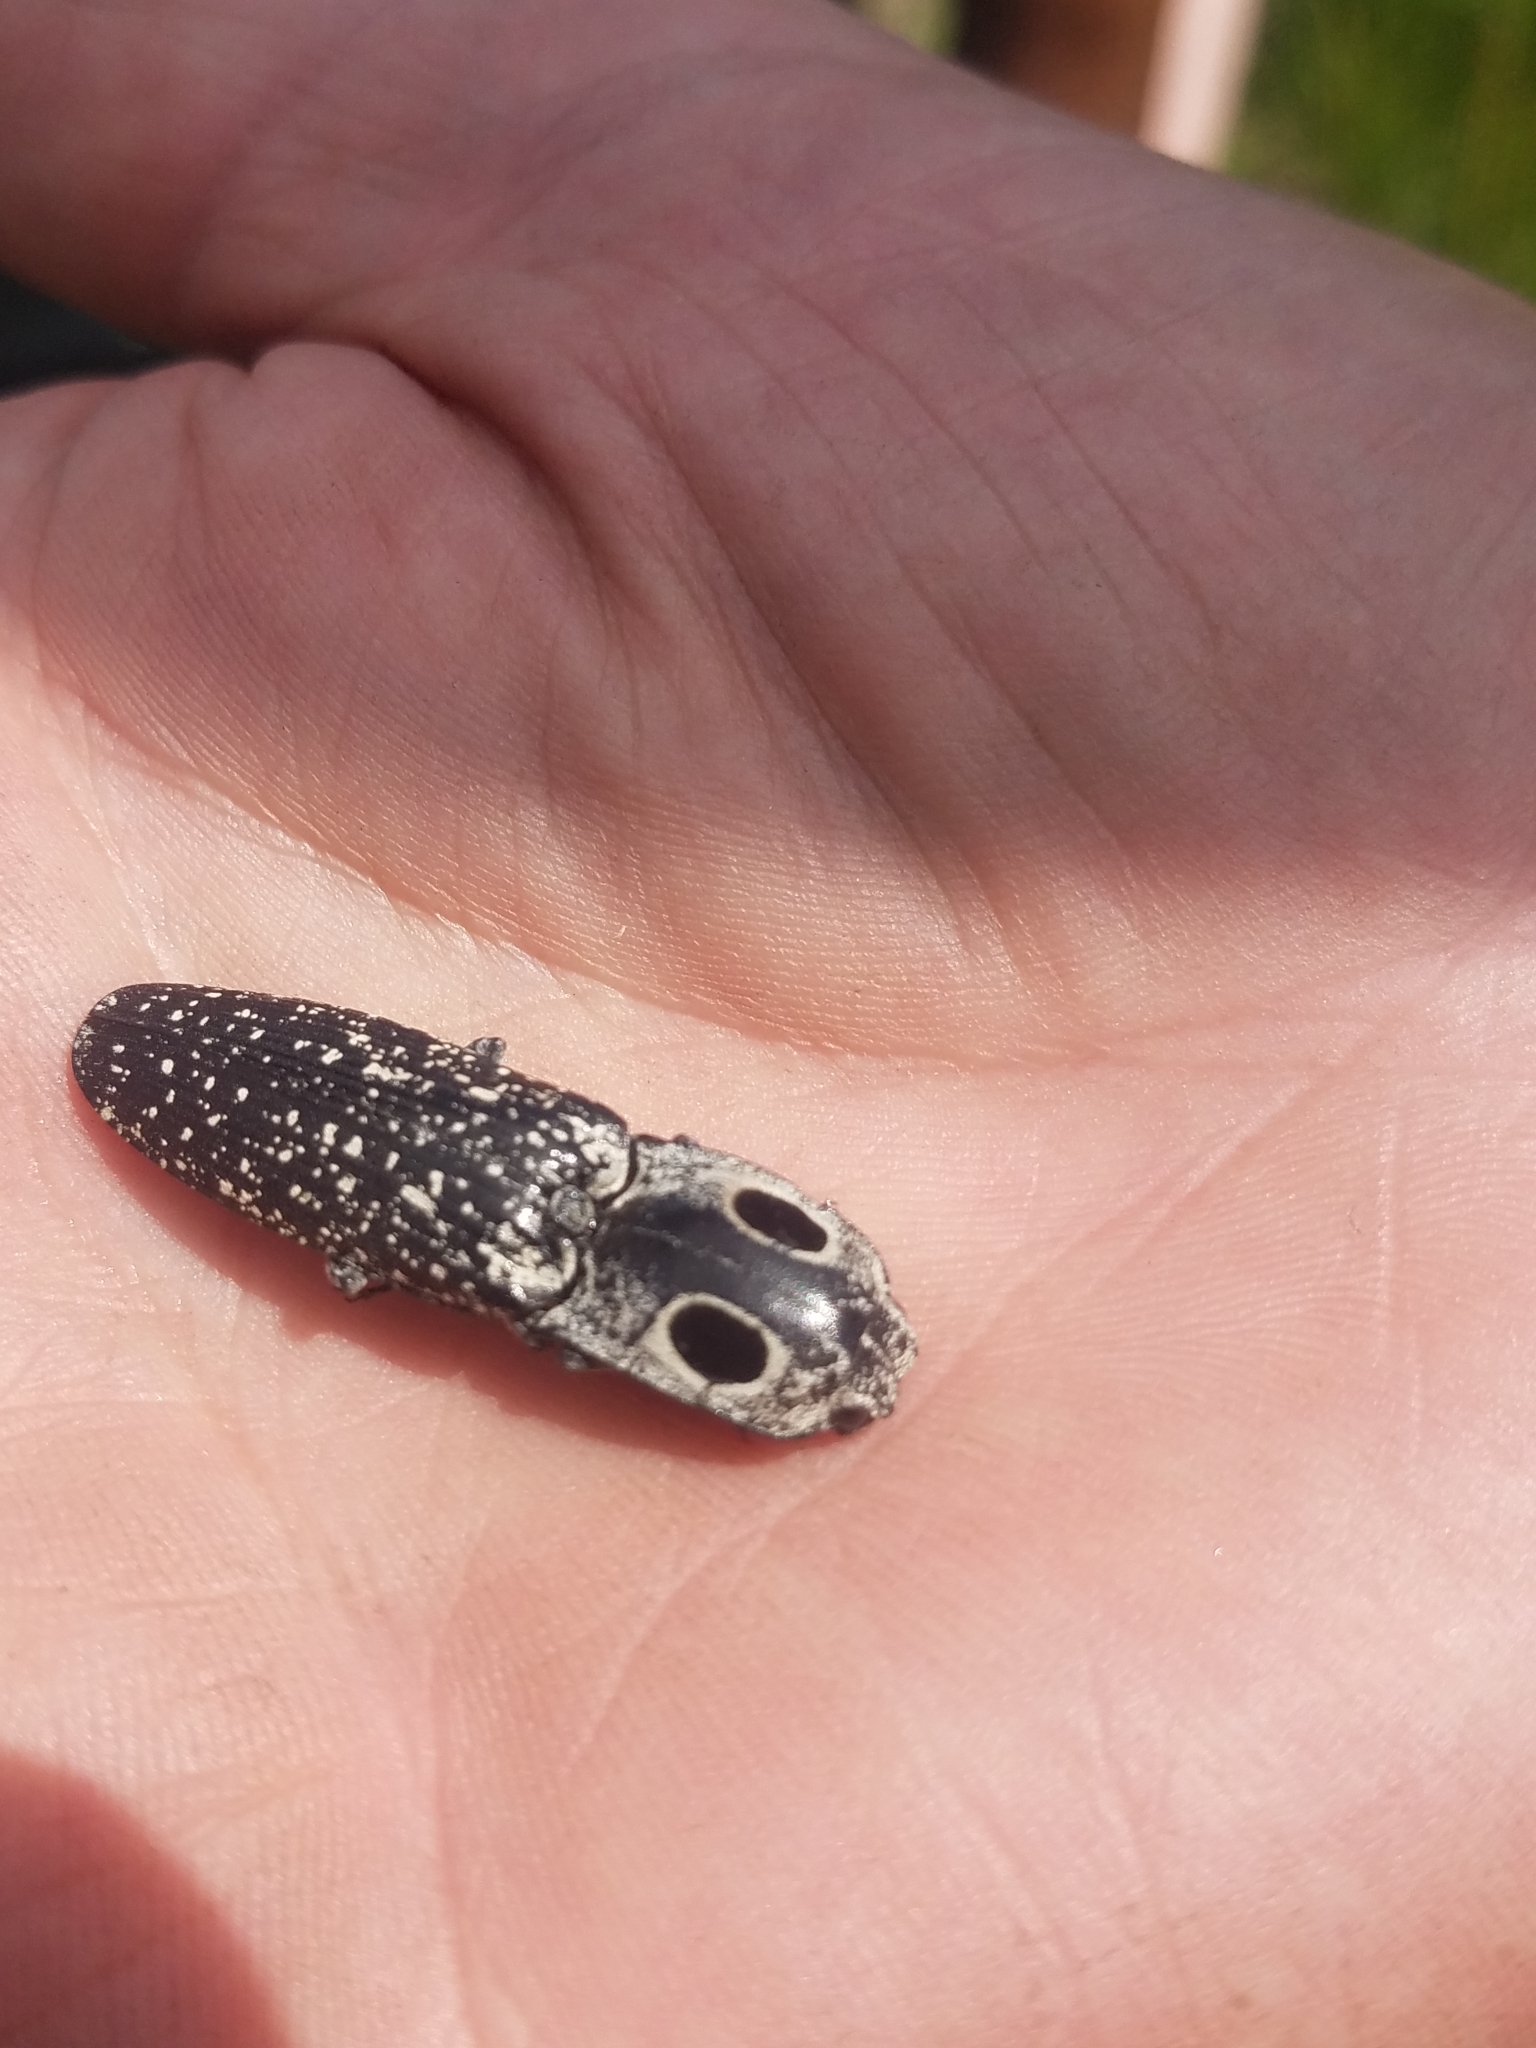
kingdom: Animalia
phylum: Arthropoda
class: Insecta
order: Coleoptera
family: Elateridae
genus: Alaus
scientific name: Alaus oculatus
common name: Eastern eyed click beetle
